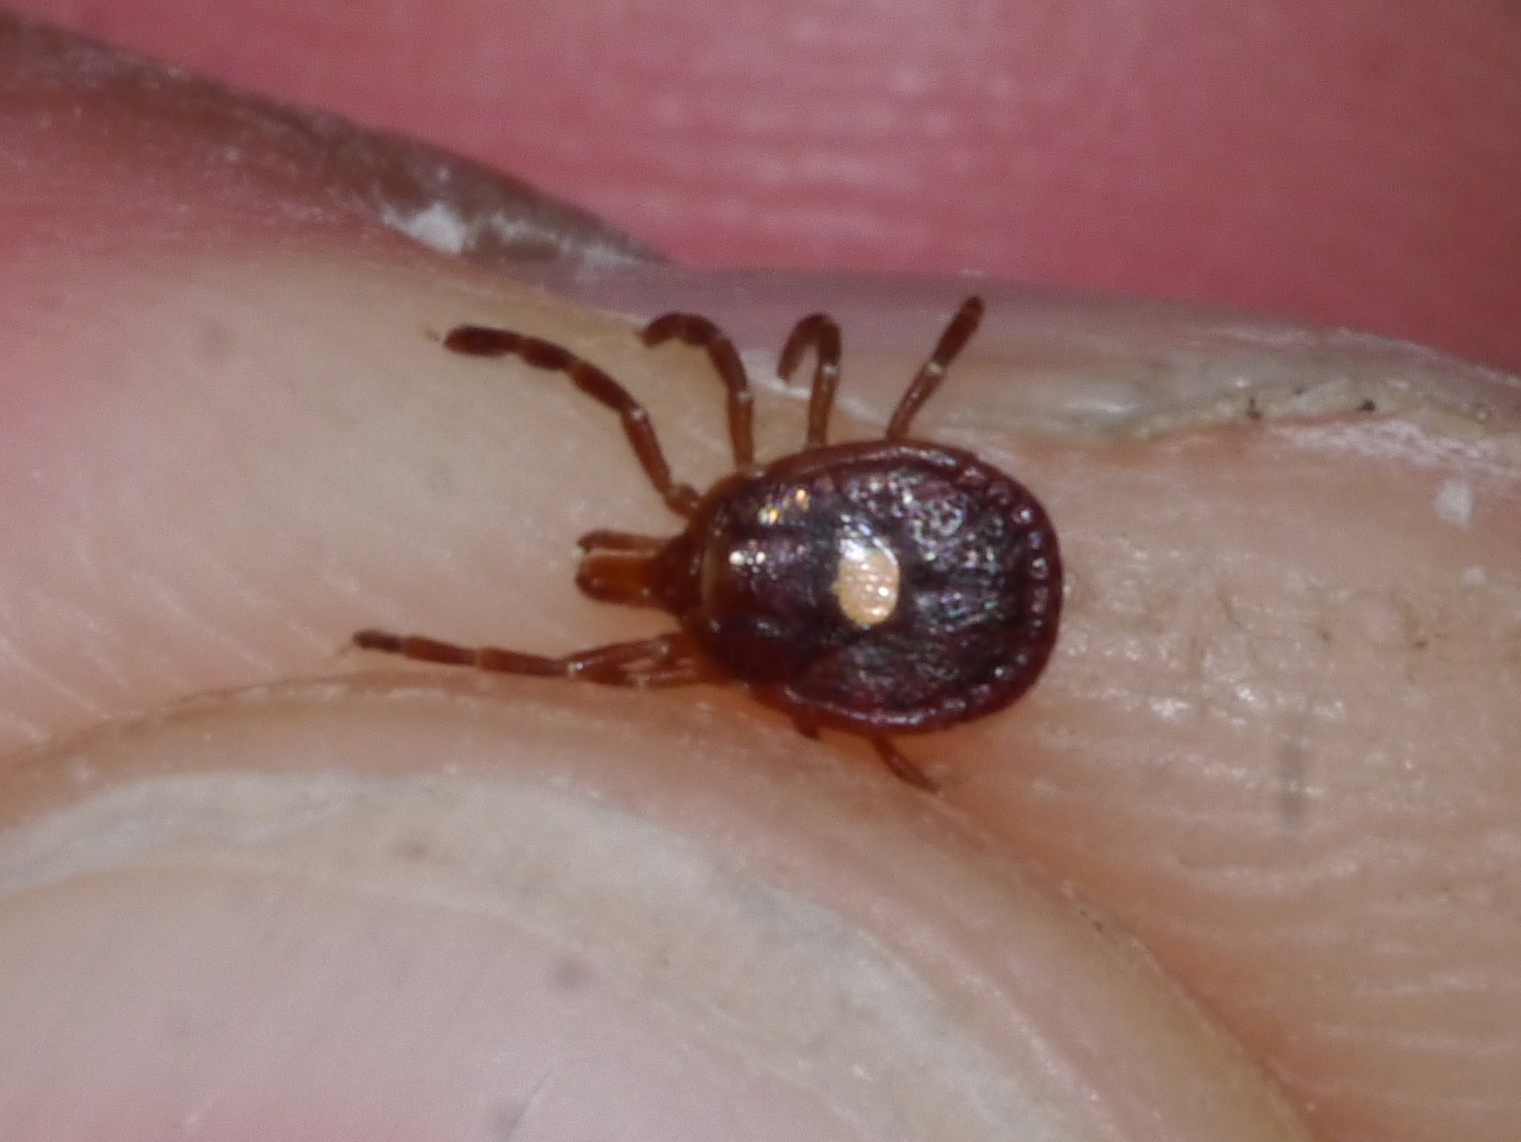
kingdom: Animalia
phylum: Arthropoda
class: Arachnida
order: Ixodida
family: Ixodidae
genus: Amblyomma
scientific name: Amblyomma americanum
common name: Lone star tick
